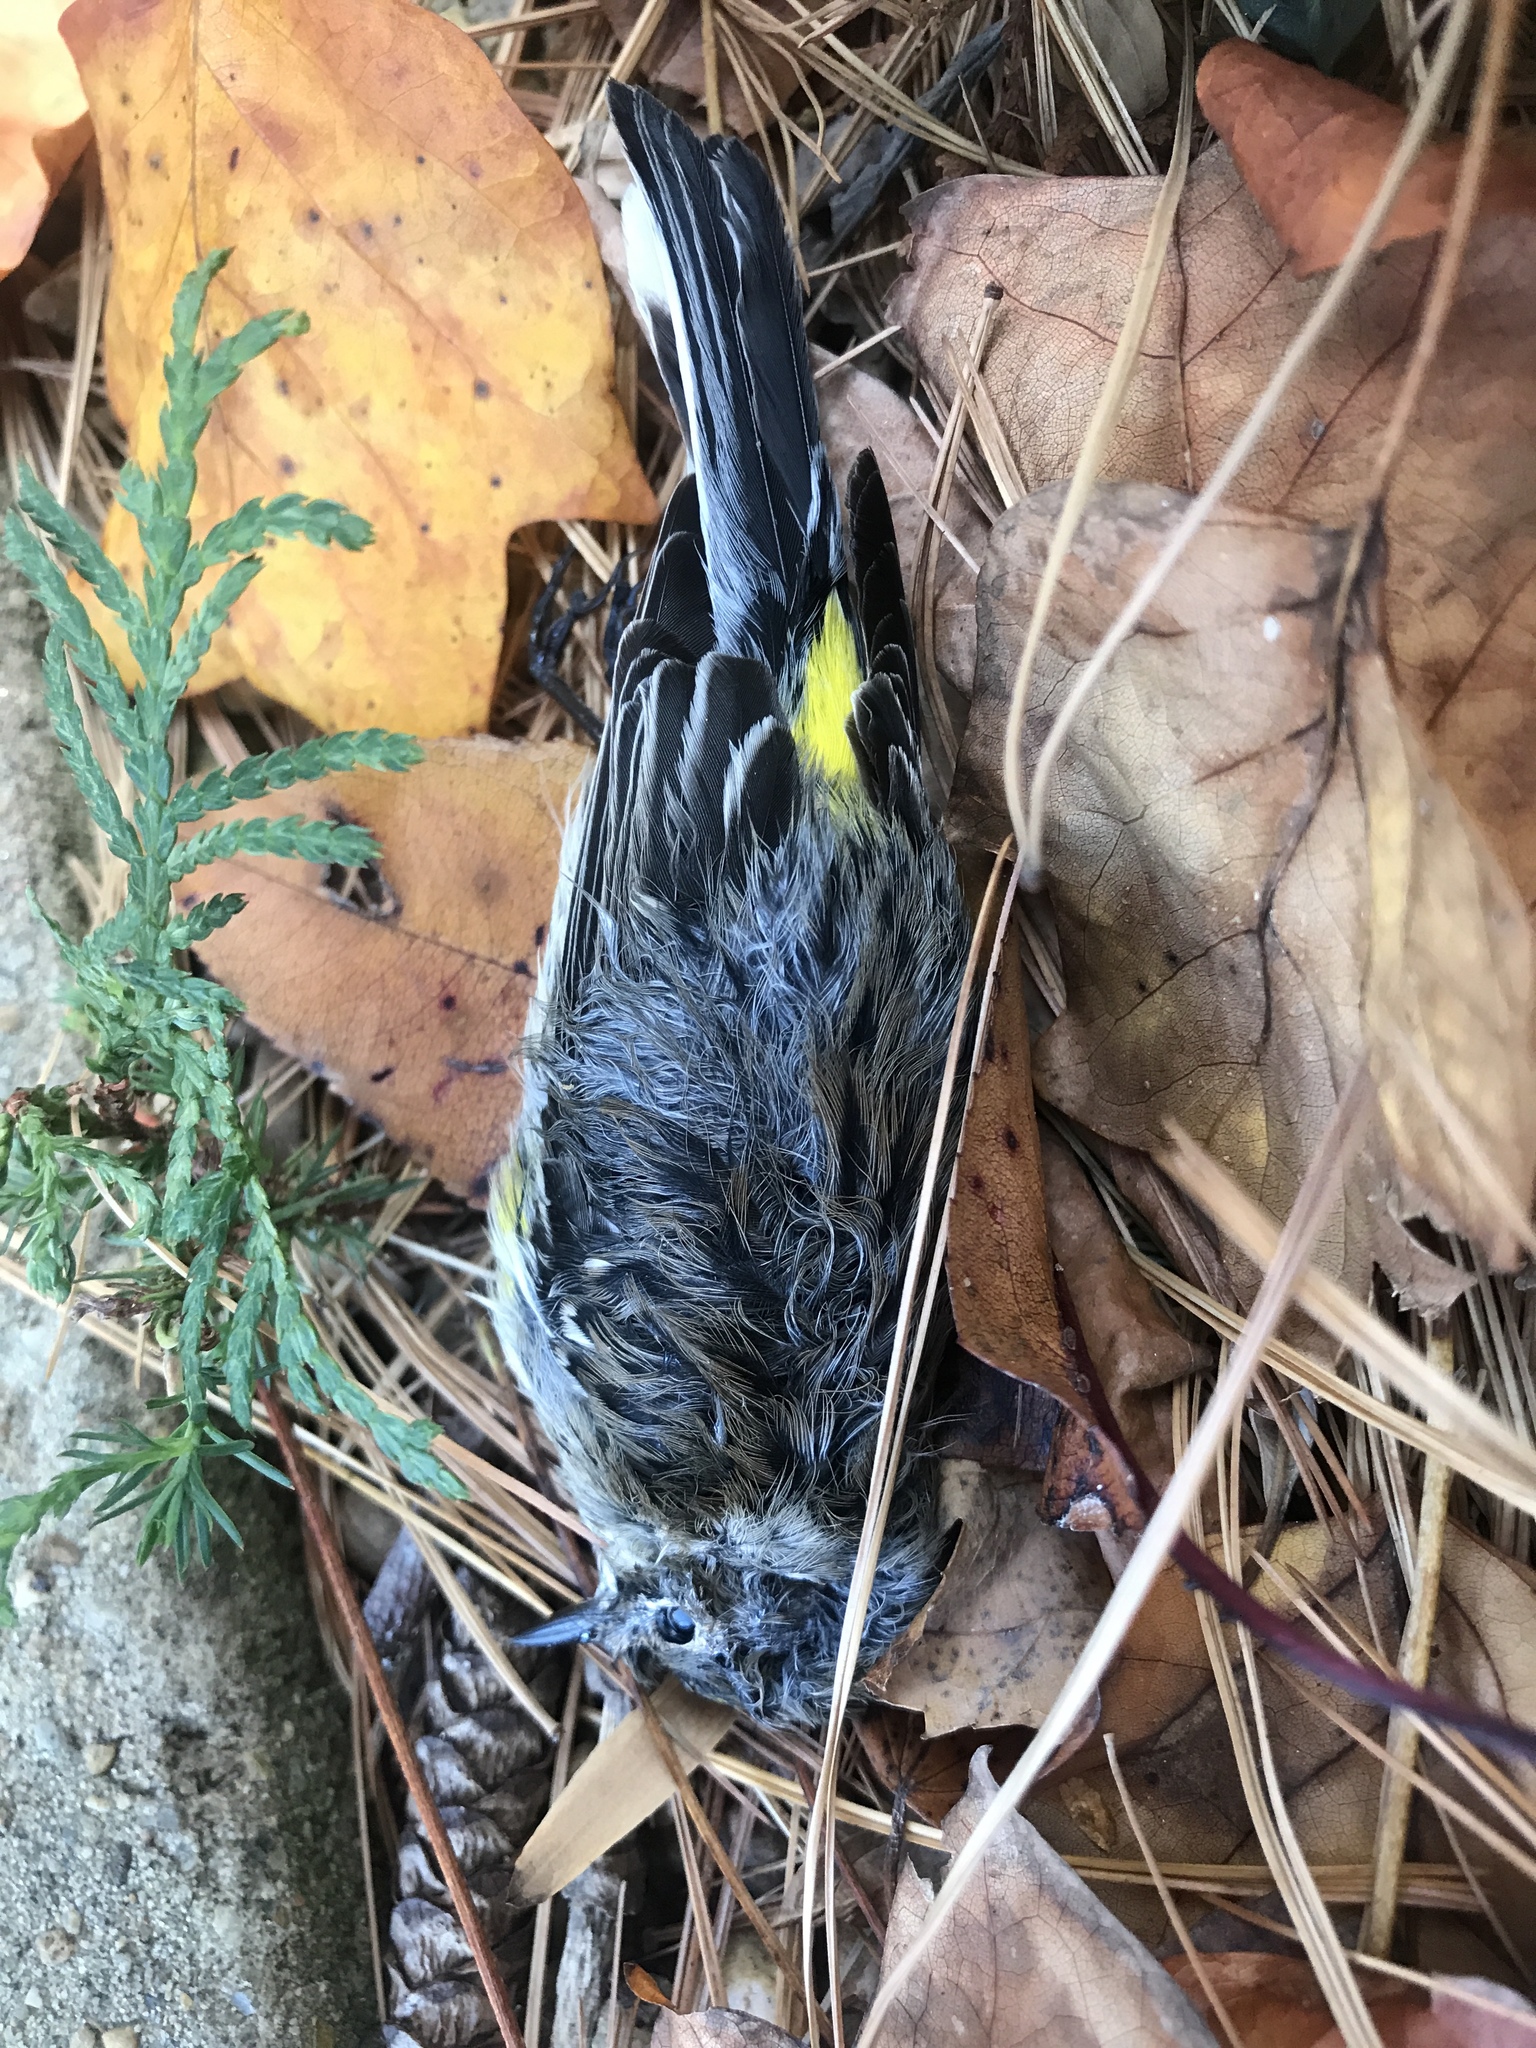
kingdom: Animalia
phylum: Chordata
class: Aves
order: Passeriformes
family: Parulidae
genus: Setophaga
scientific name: Setophaga coronata
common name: Myrtle warbler
